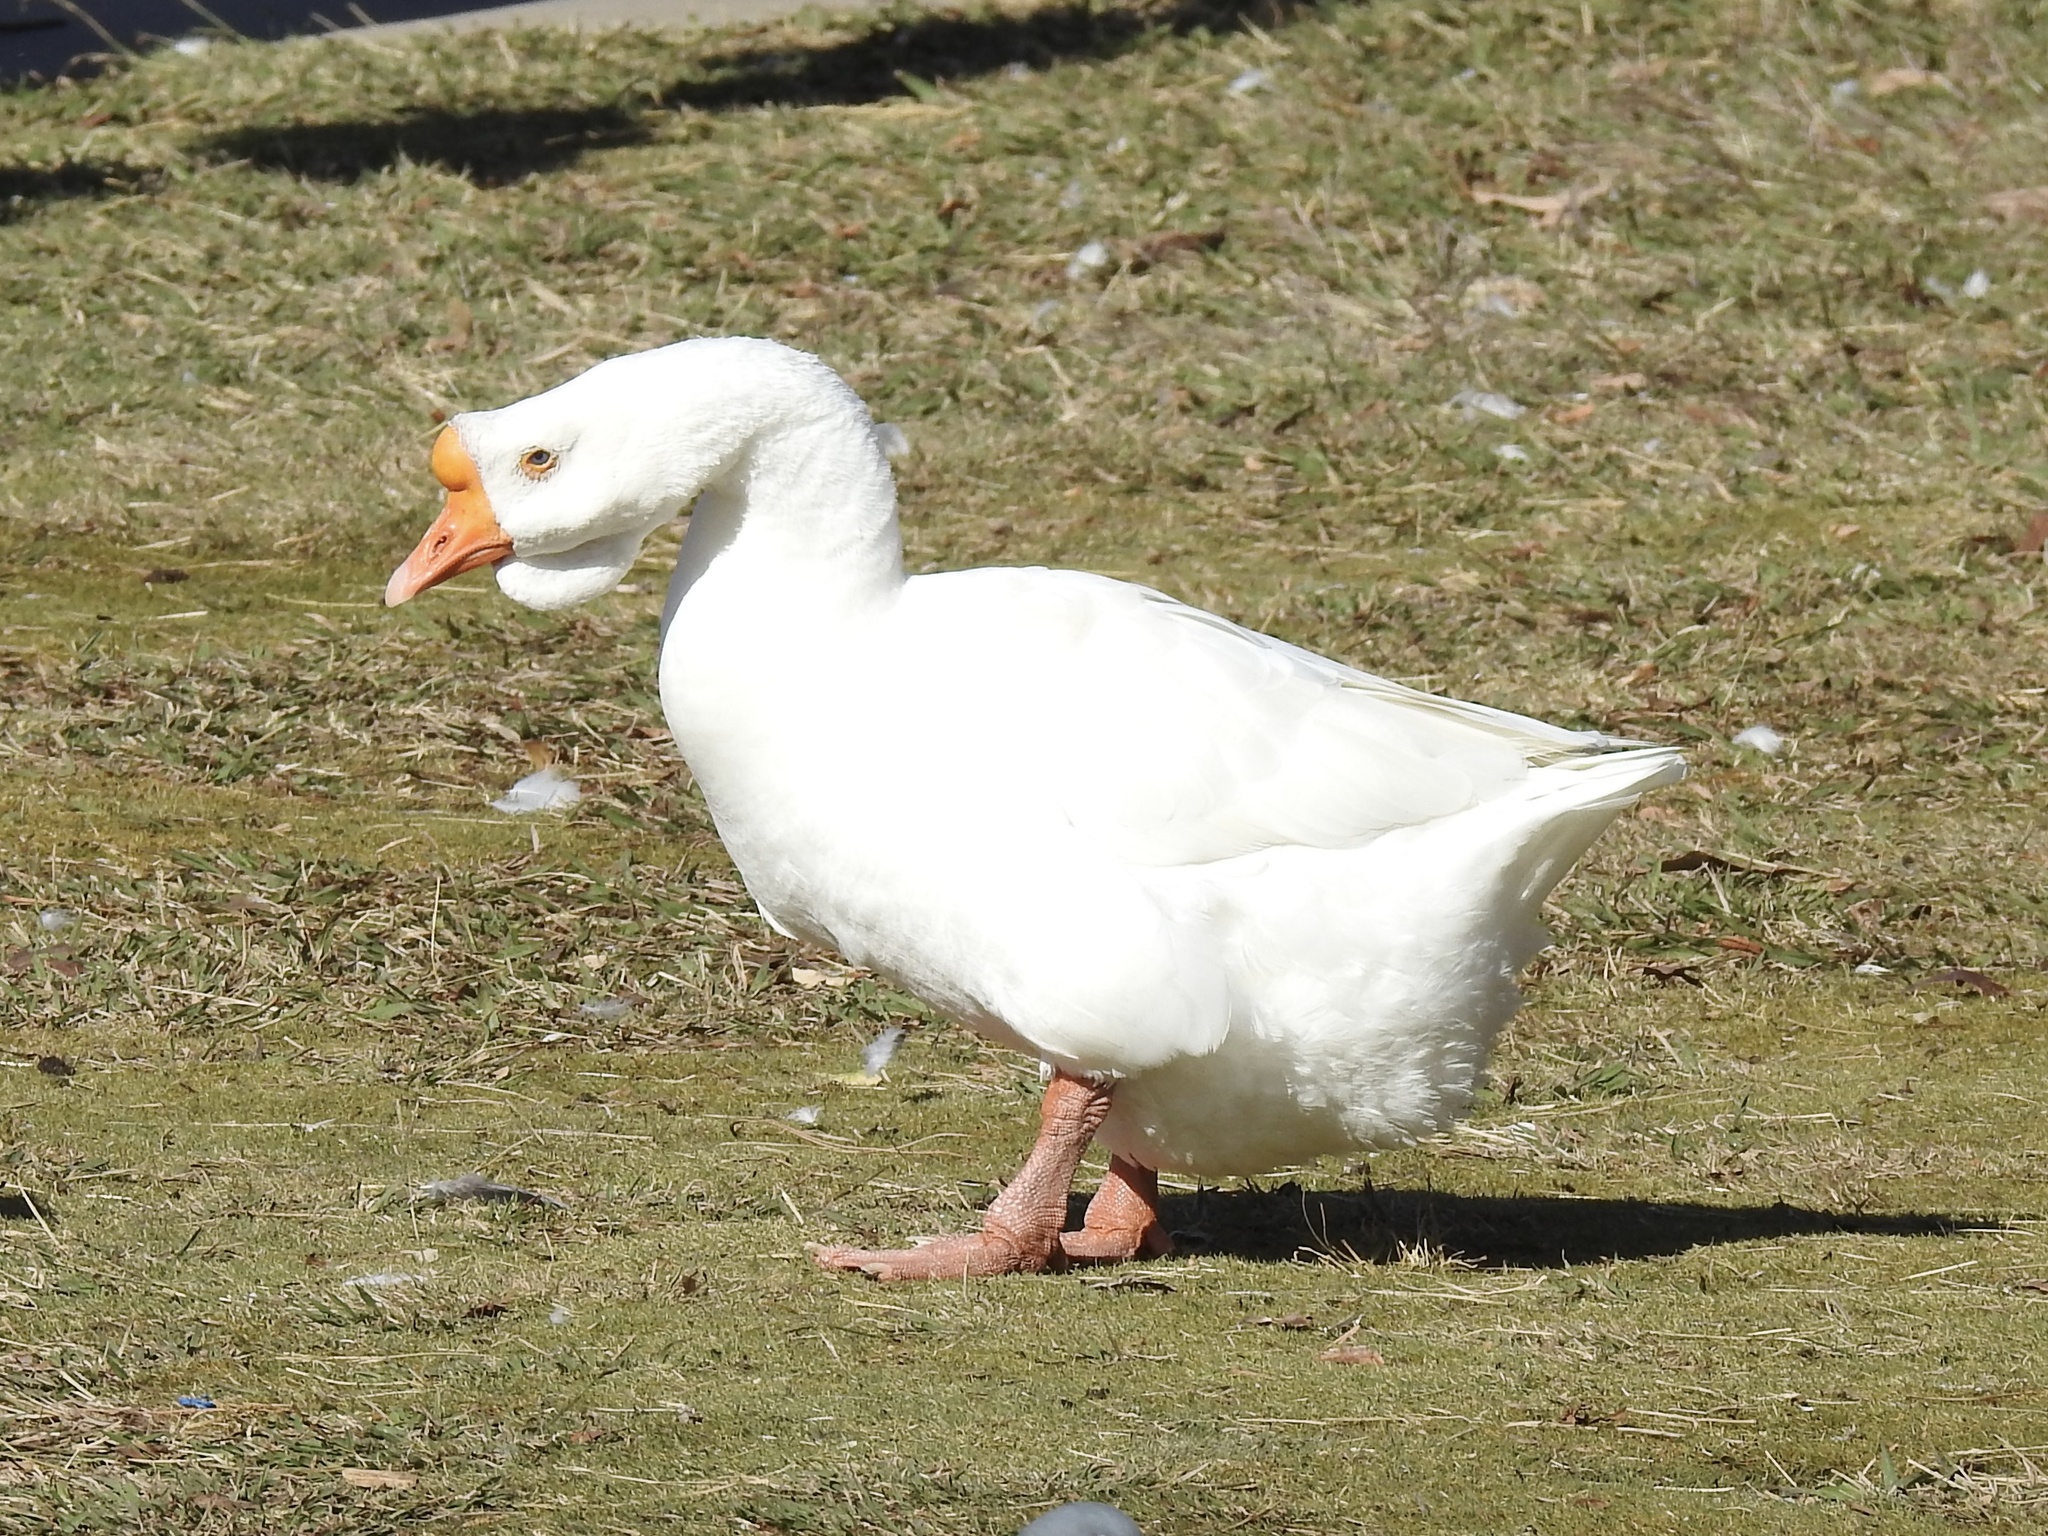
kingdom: Animalia
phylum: Chordata
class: Aves
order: Anseriformes
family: Anatidae
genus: Anser
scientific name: Anser cygnoides
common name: Swan goose
